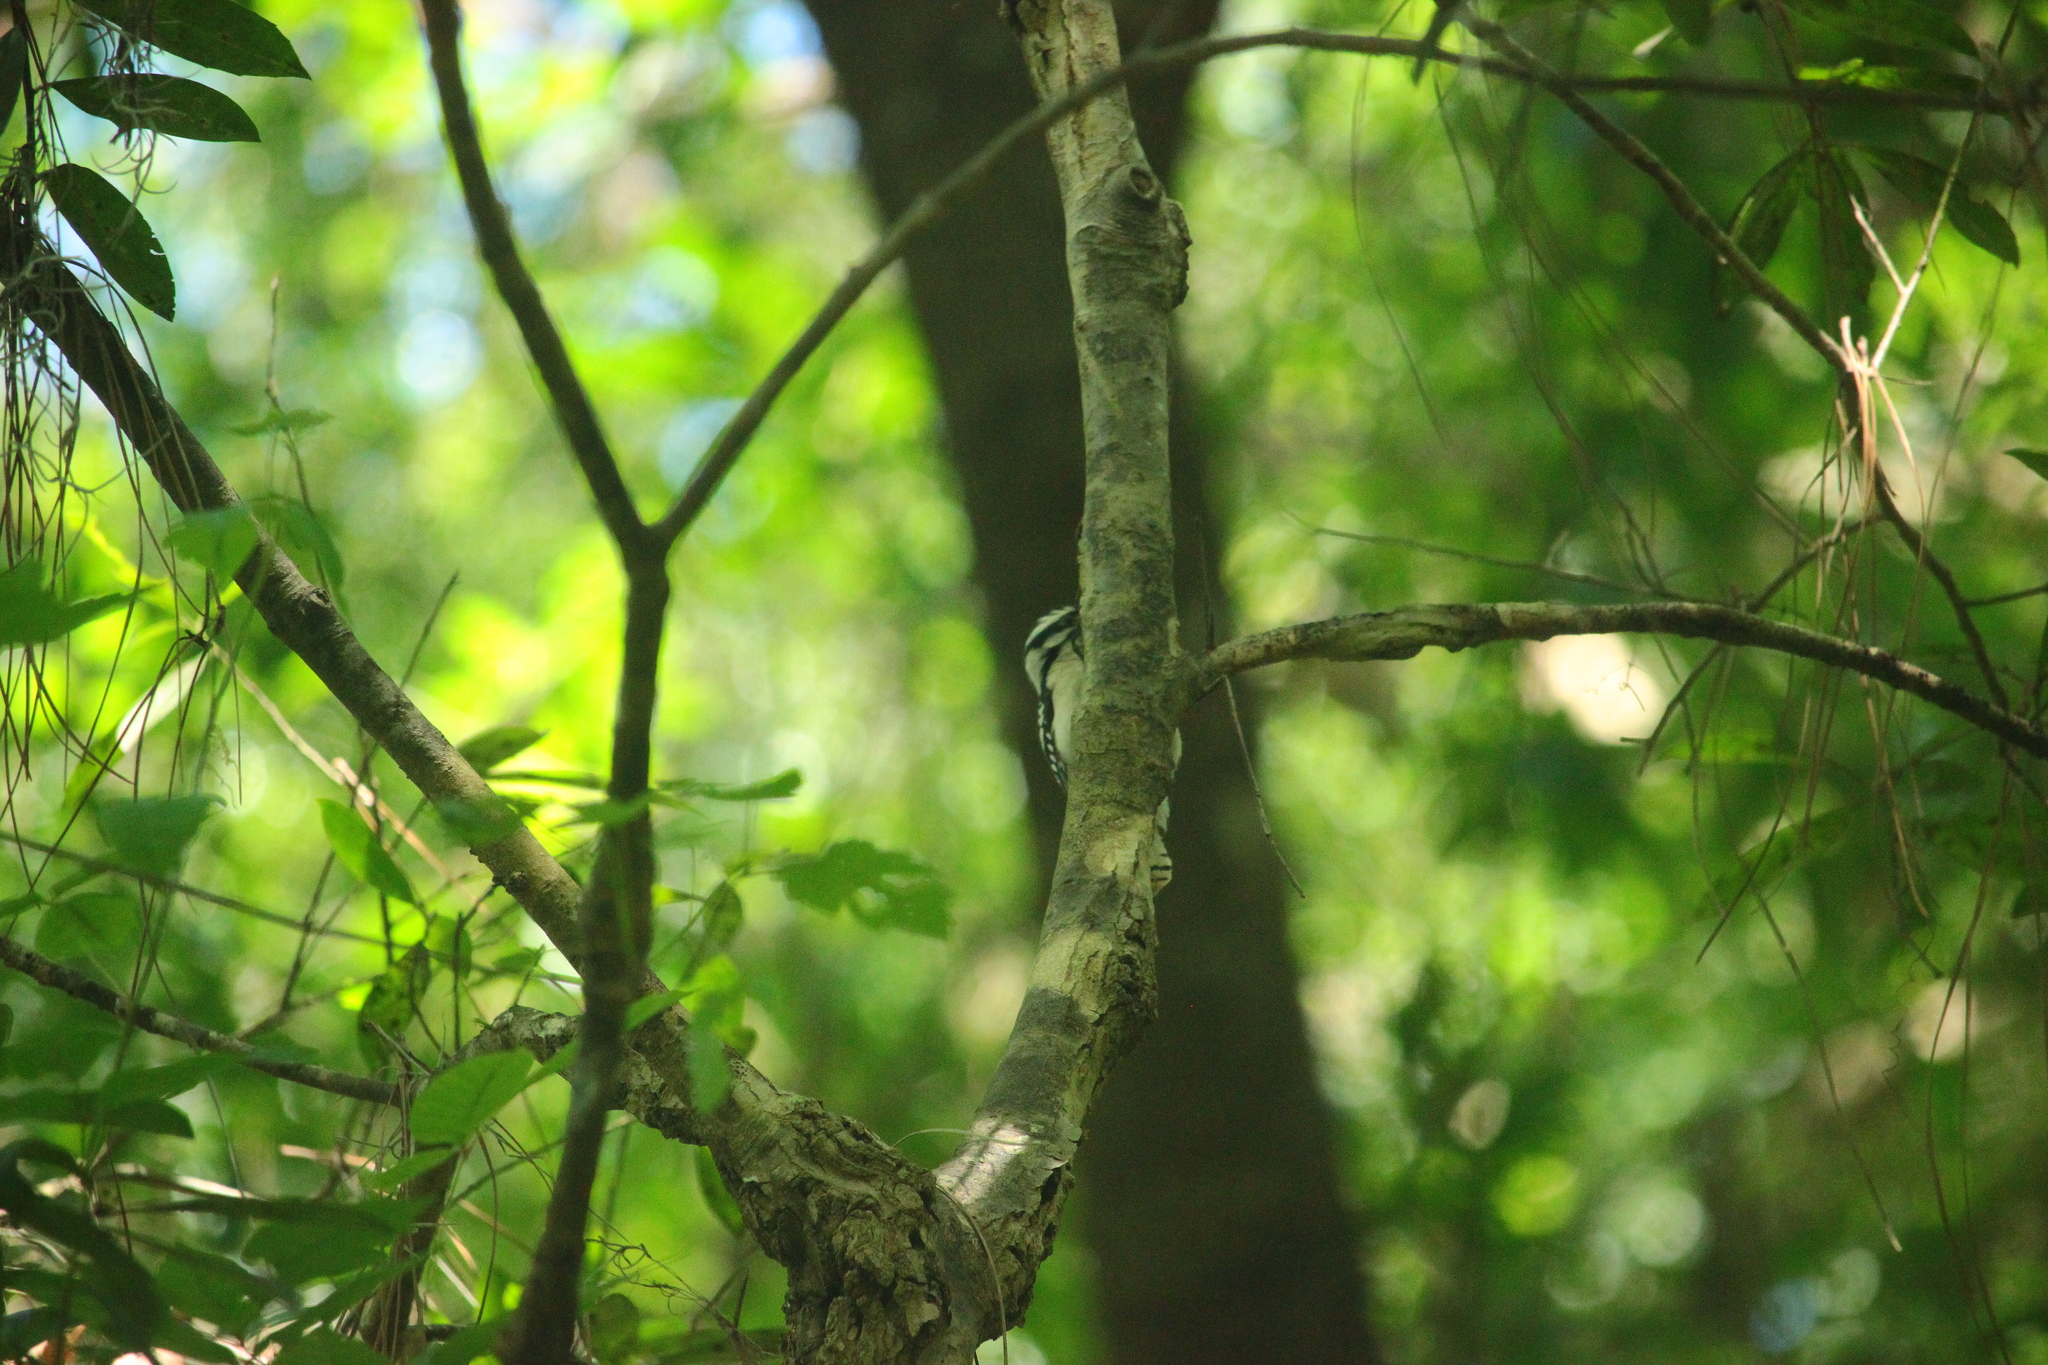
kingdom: Animalia
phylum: Chordata
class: Aves
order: Piciformes
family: Picidae
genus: Dryobates
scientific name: Dryobates pubescens
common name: Downy woodpecker
